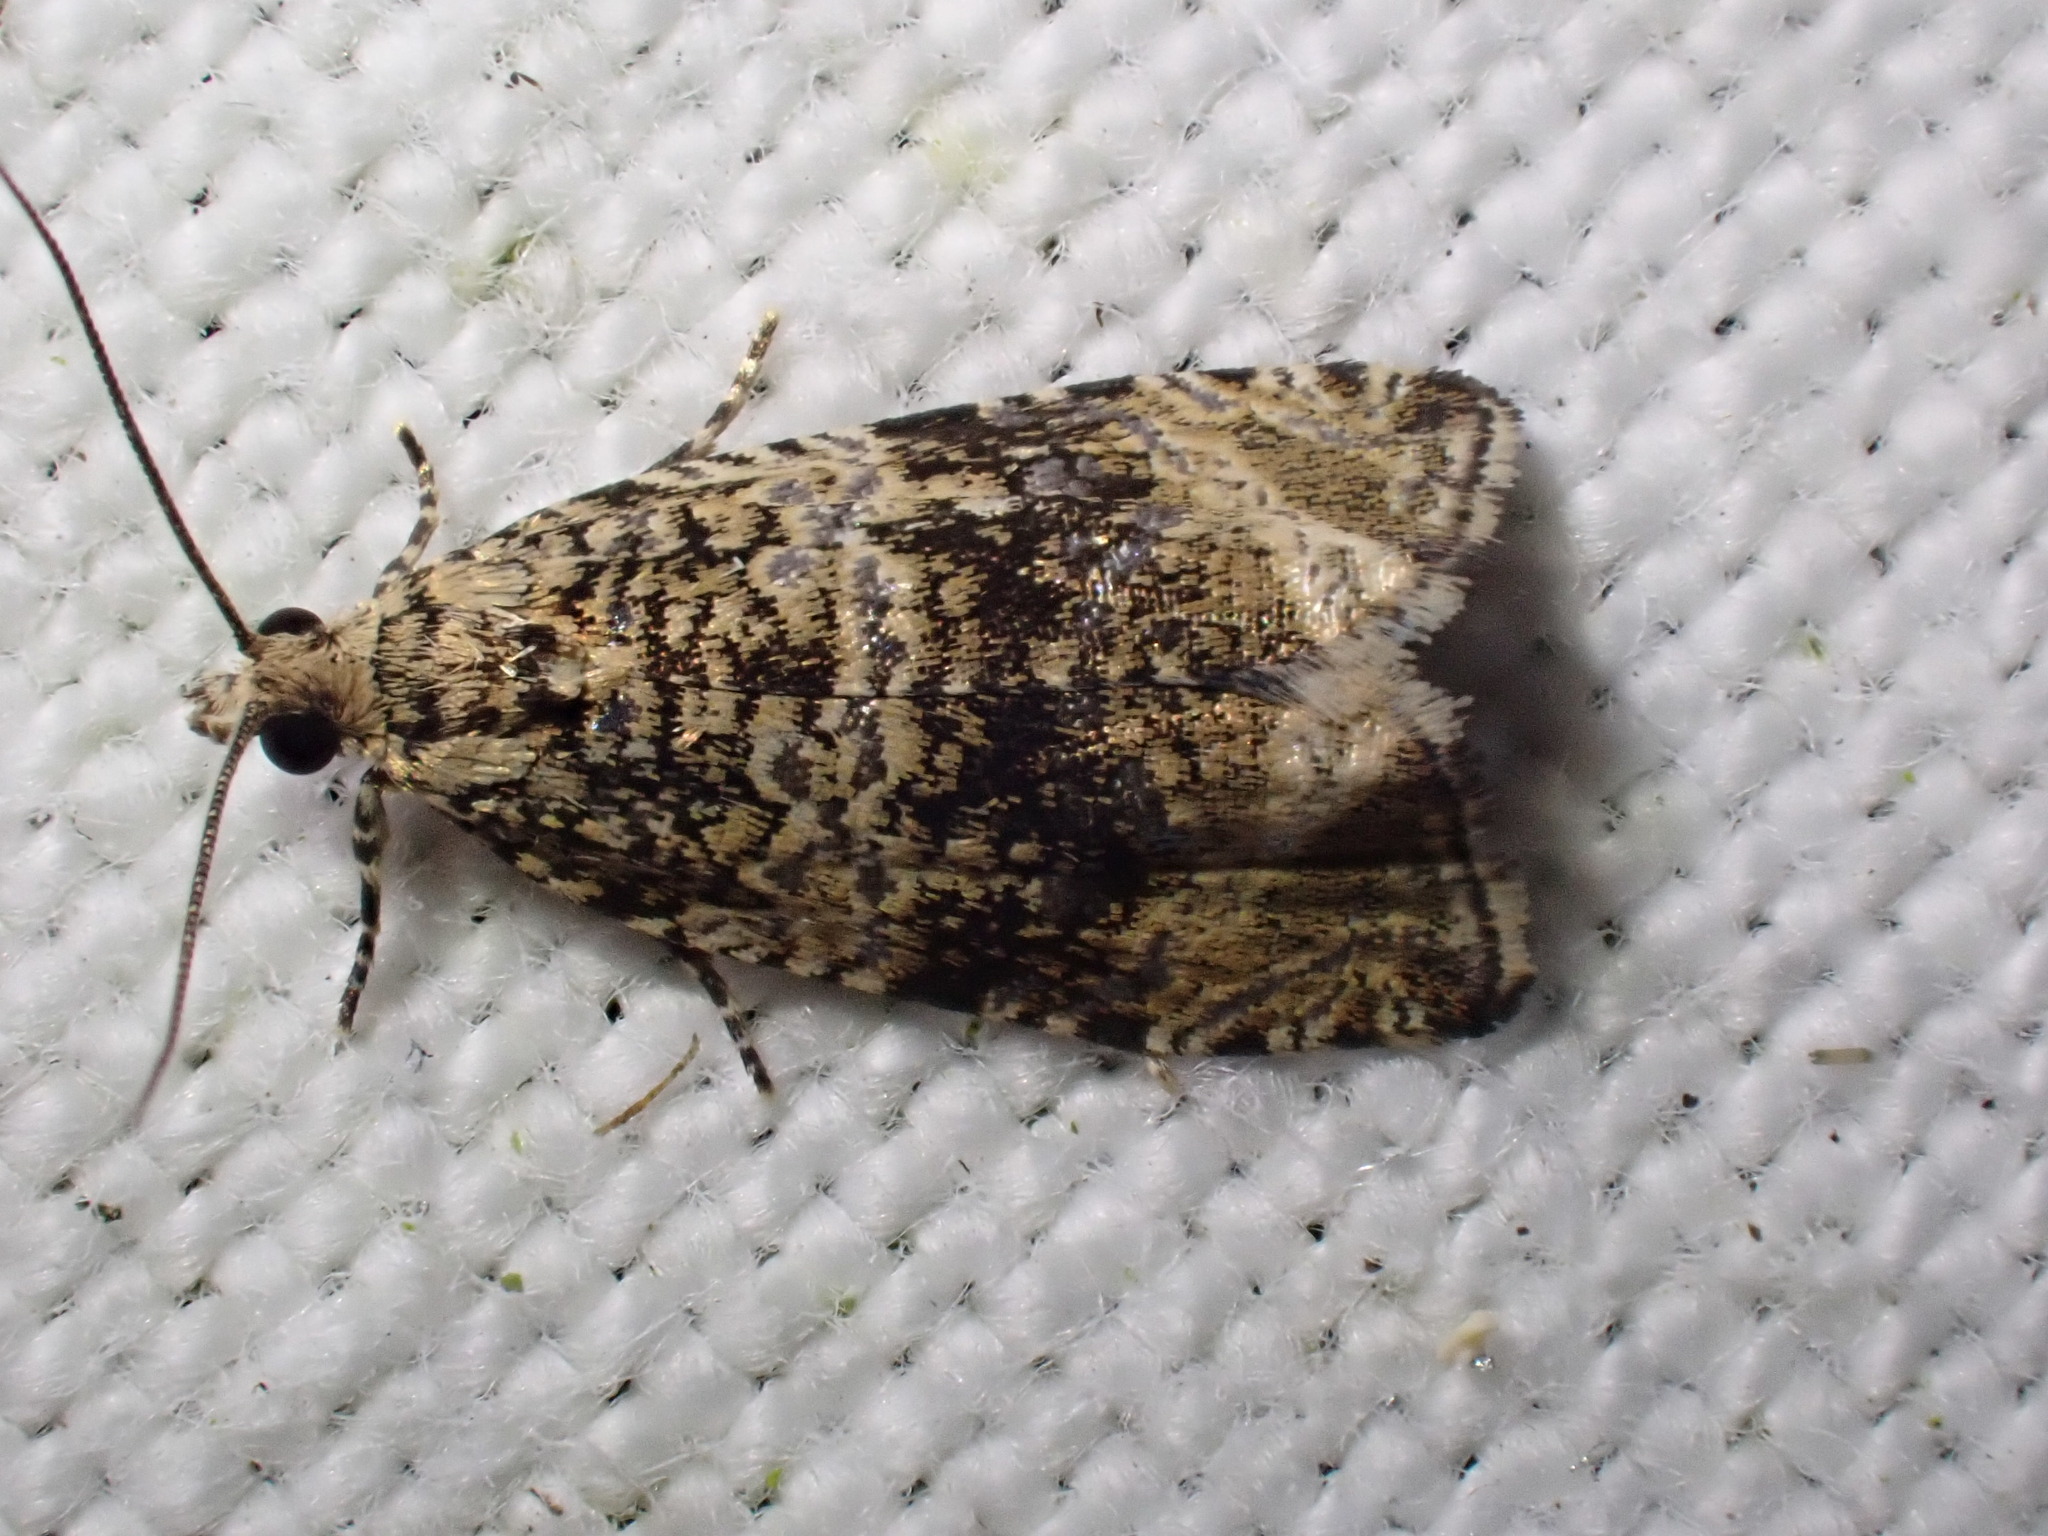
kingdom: Animalia
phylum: Arthropoda
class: Insecta
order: Lepidoptera
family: Tortricidae
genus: Syricoris
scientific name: Syricoris lacunana
